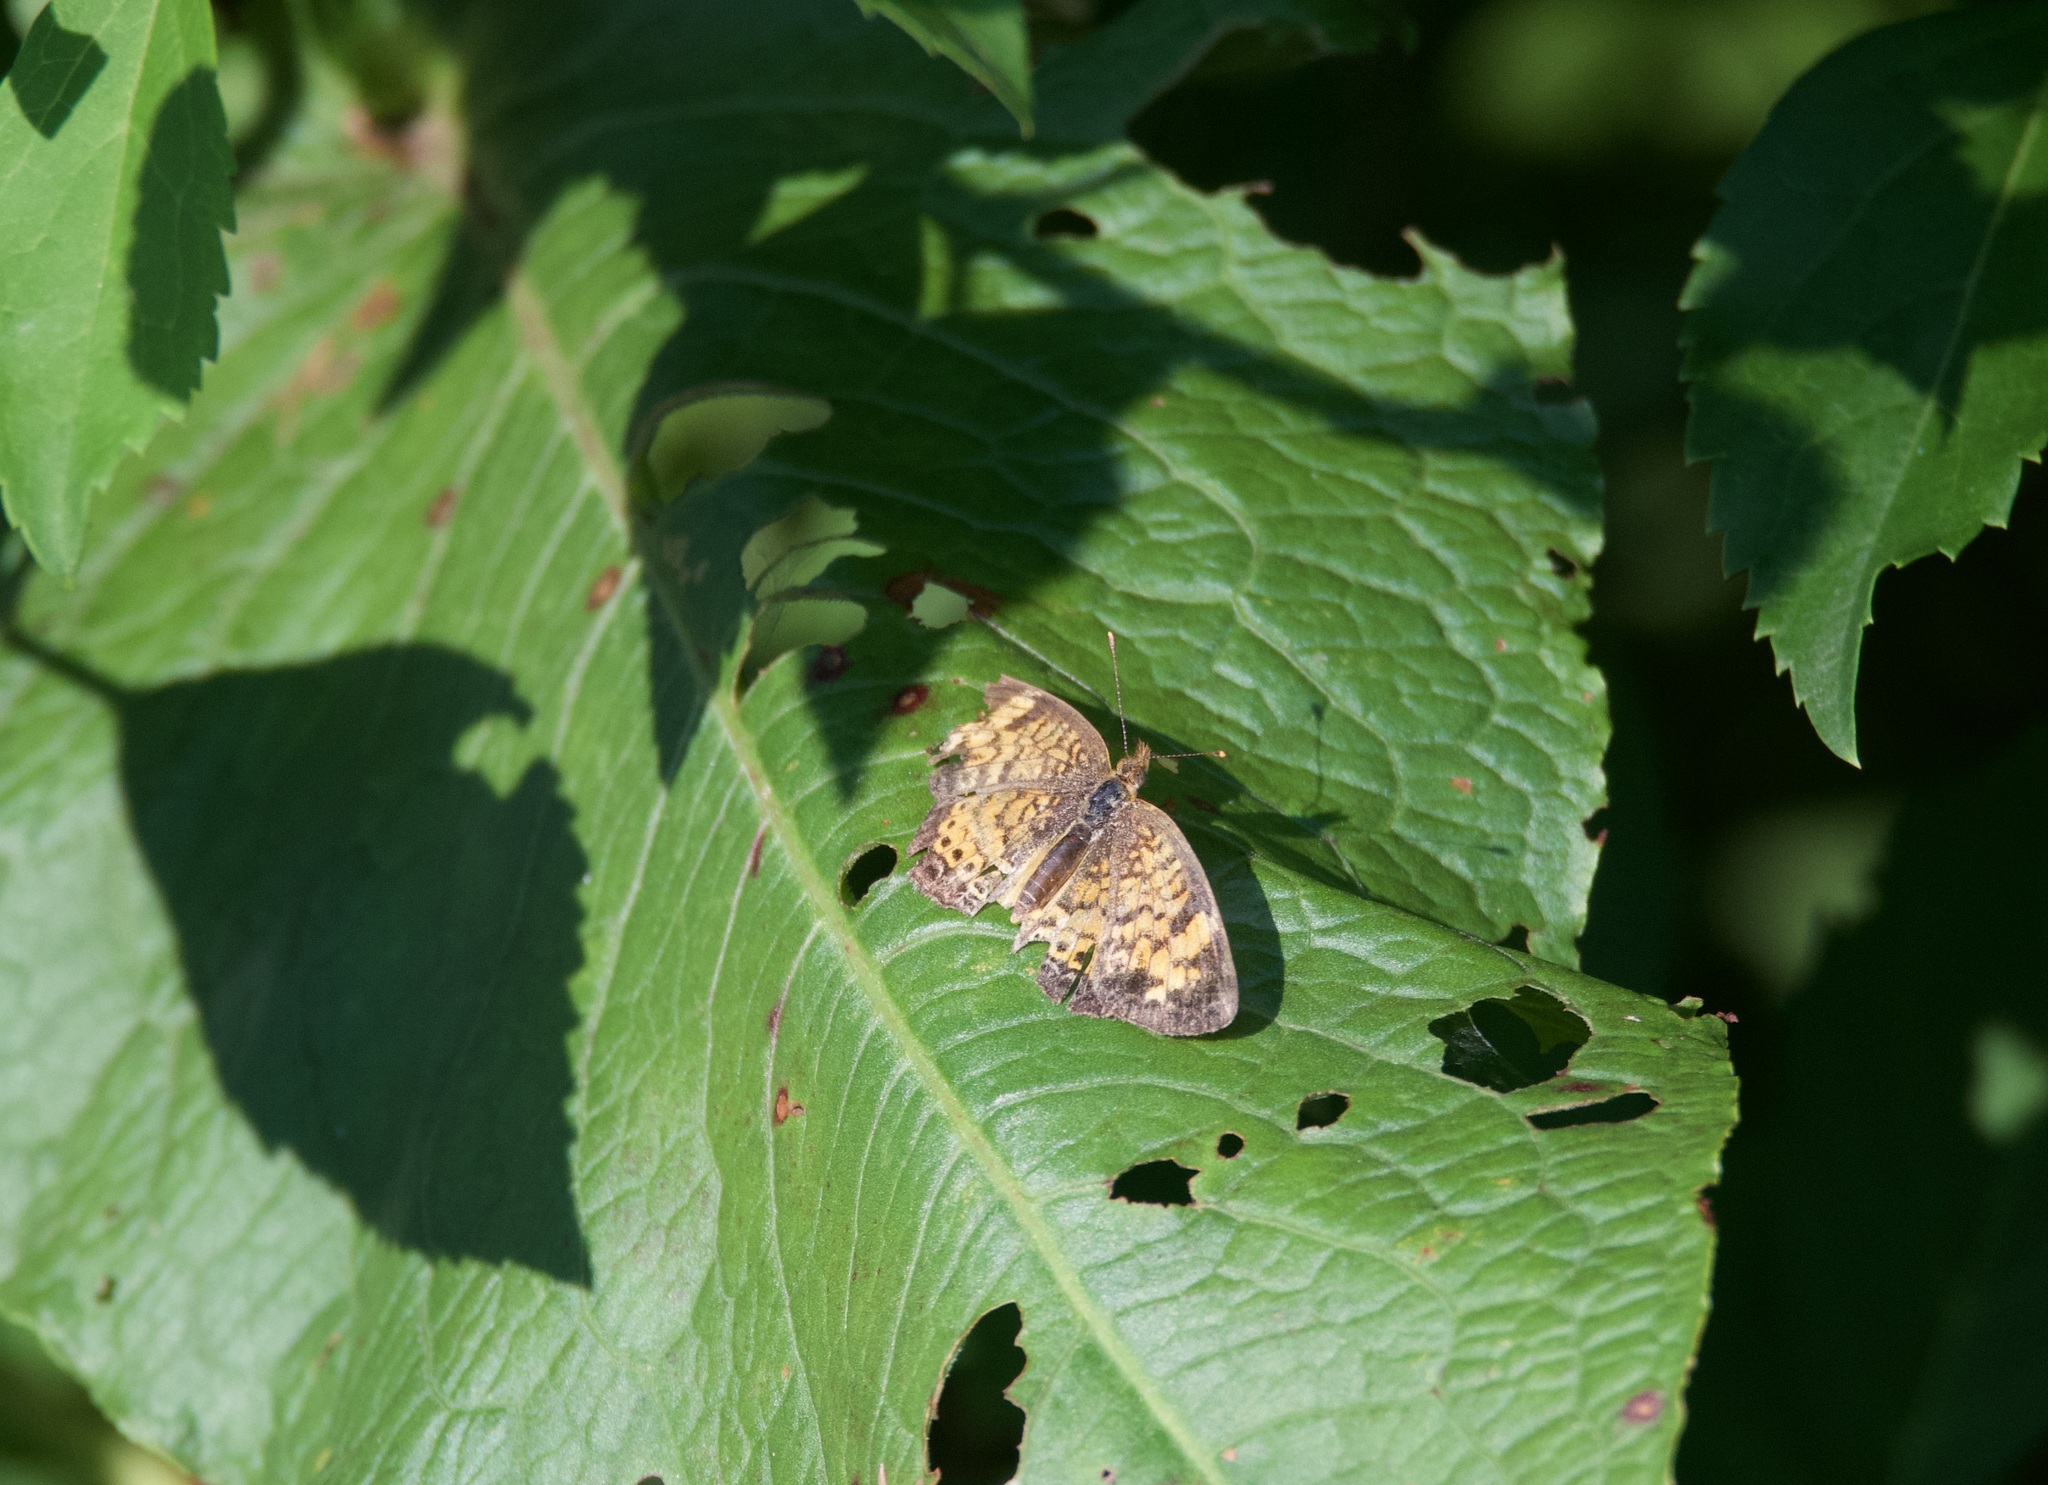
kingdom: Animalia
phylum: Arthropoda
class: Insecta
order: Lepidoptera
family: Nymphalidae
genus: Phyciodes
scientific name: Phyciodes tharos
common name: Pearl crescent
